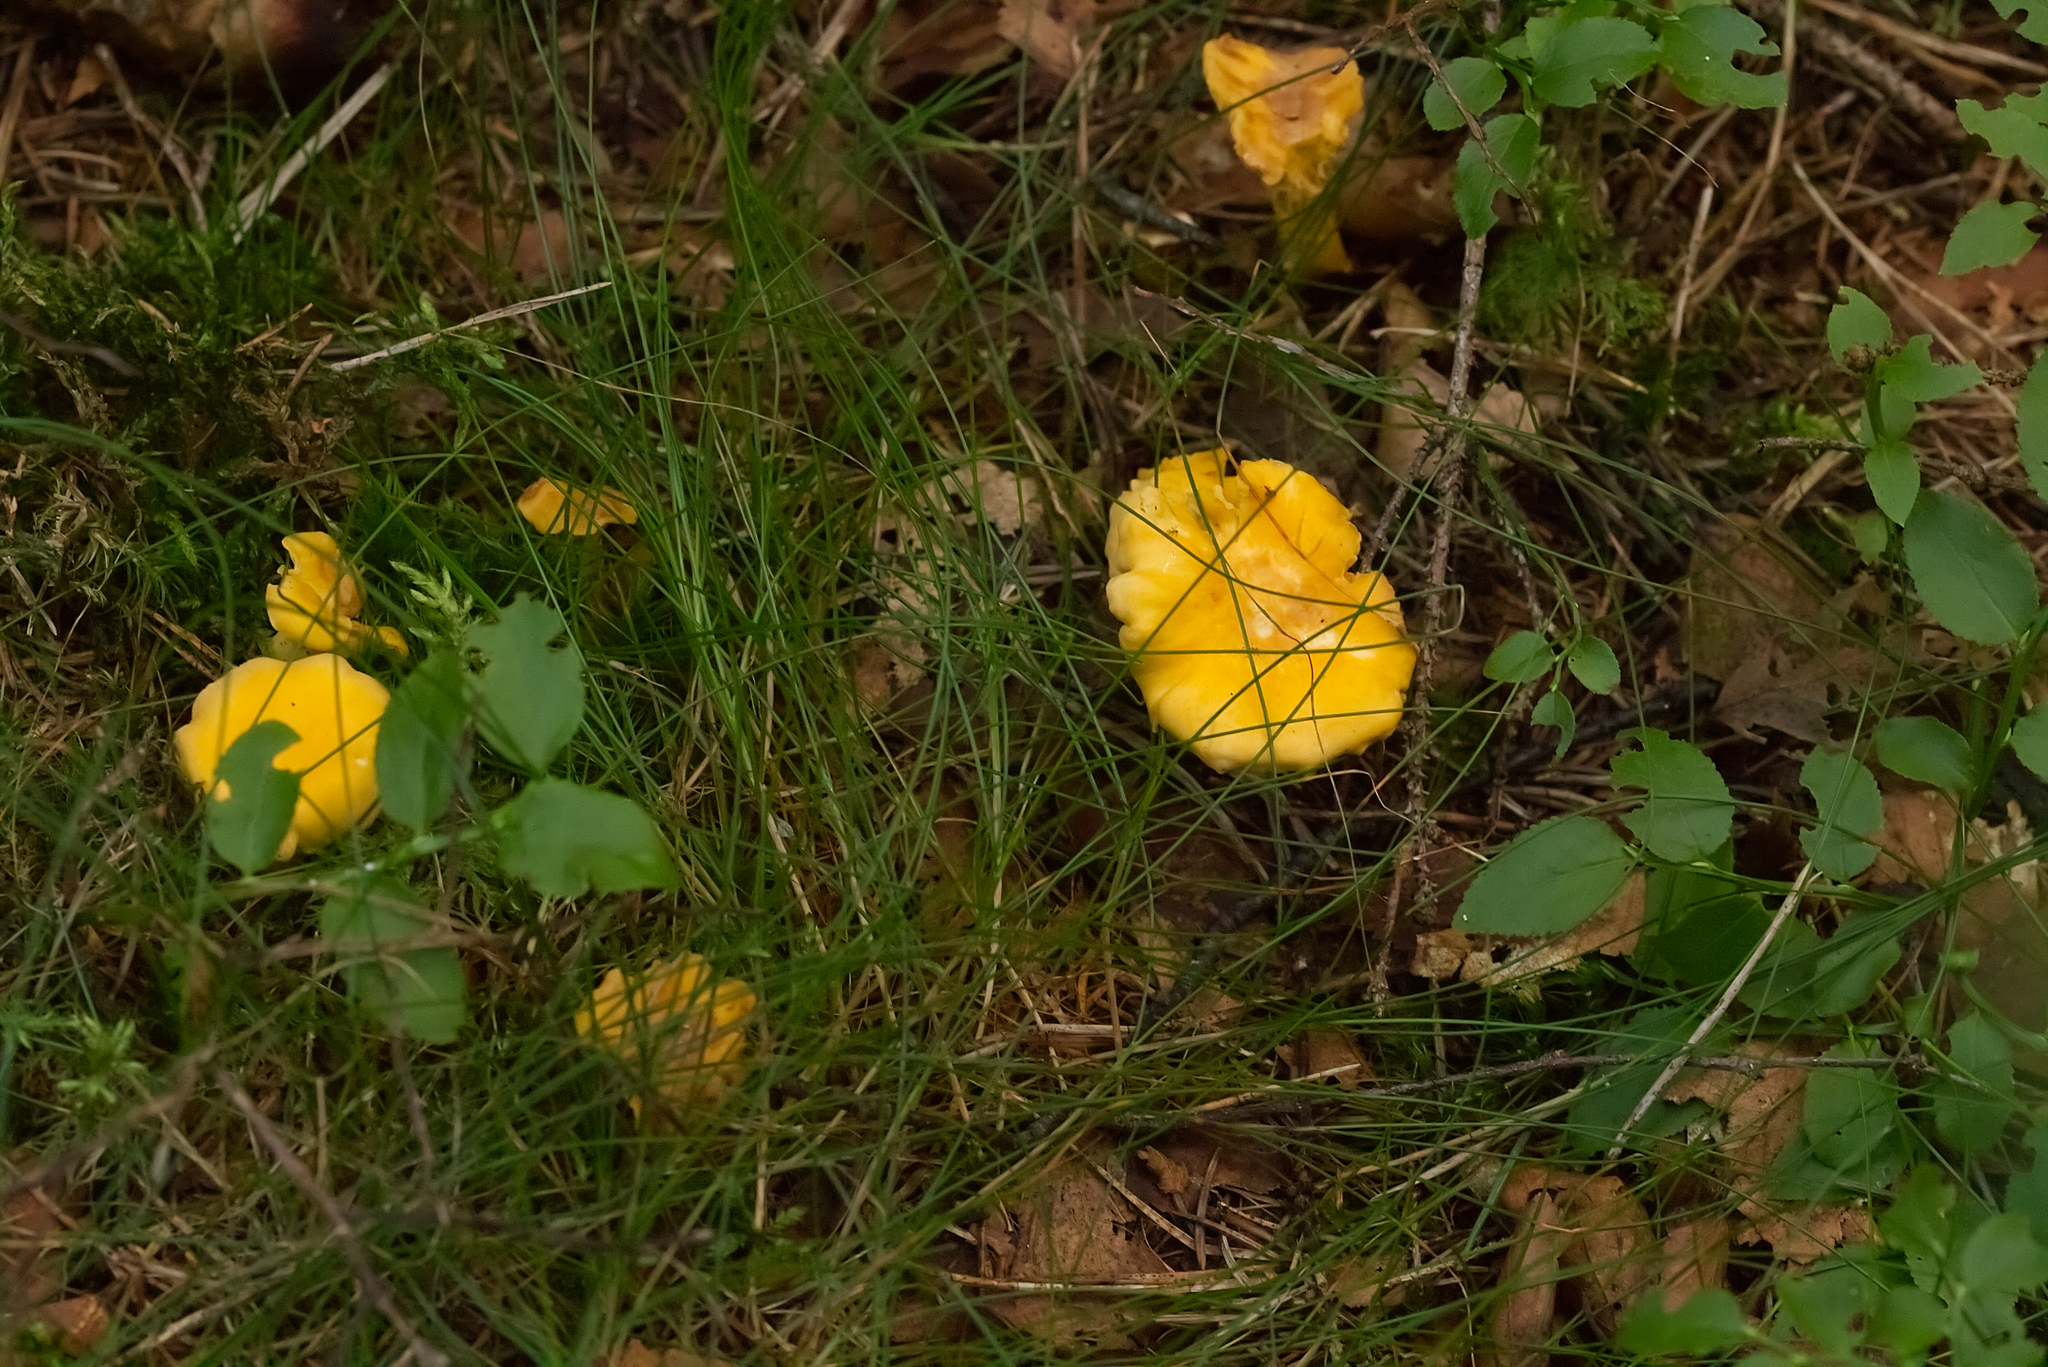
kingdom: Fungi
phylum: Basidiomycota
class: Agaricomycetes
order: Cantharellales
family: Hydnaceae
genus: Cantharellus
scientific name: Cantharellus cibarius
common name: Chanterelle
